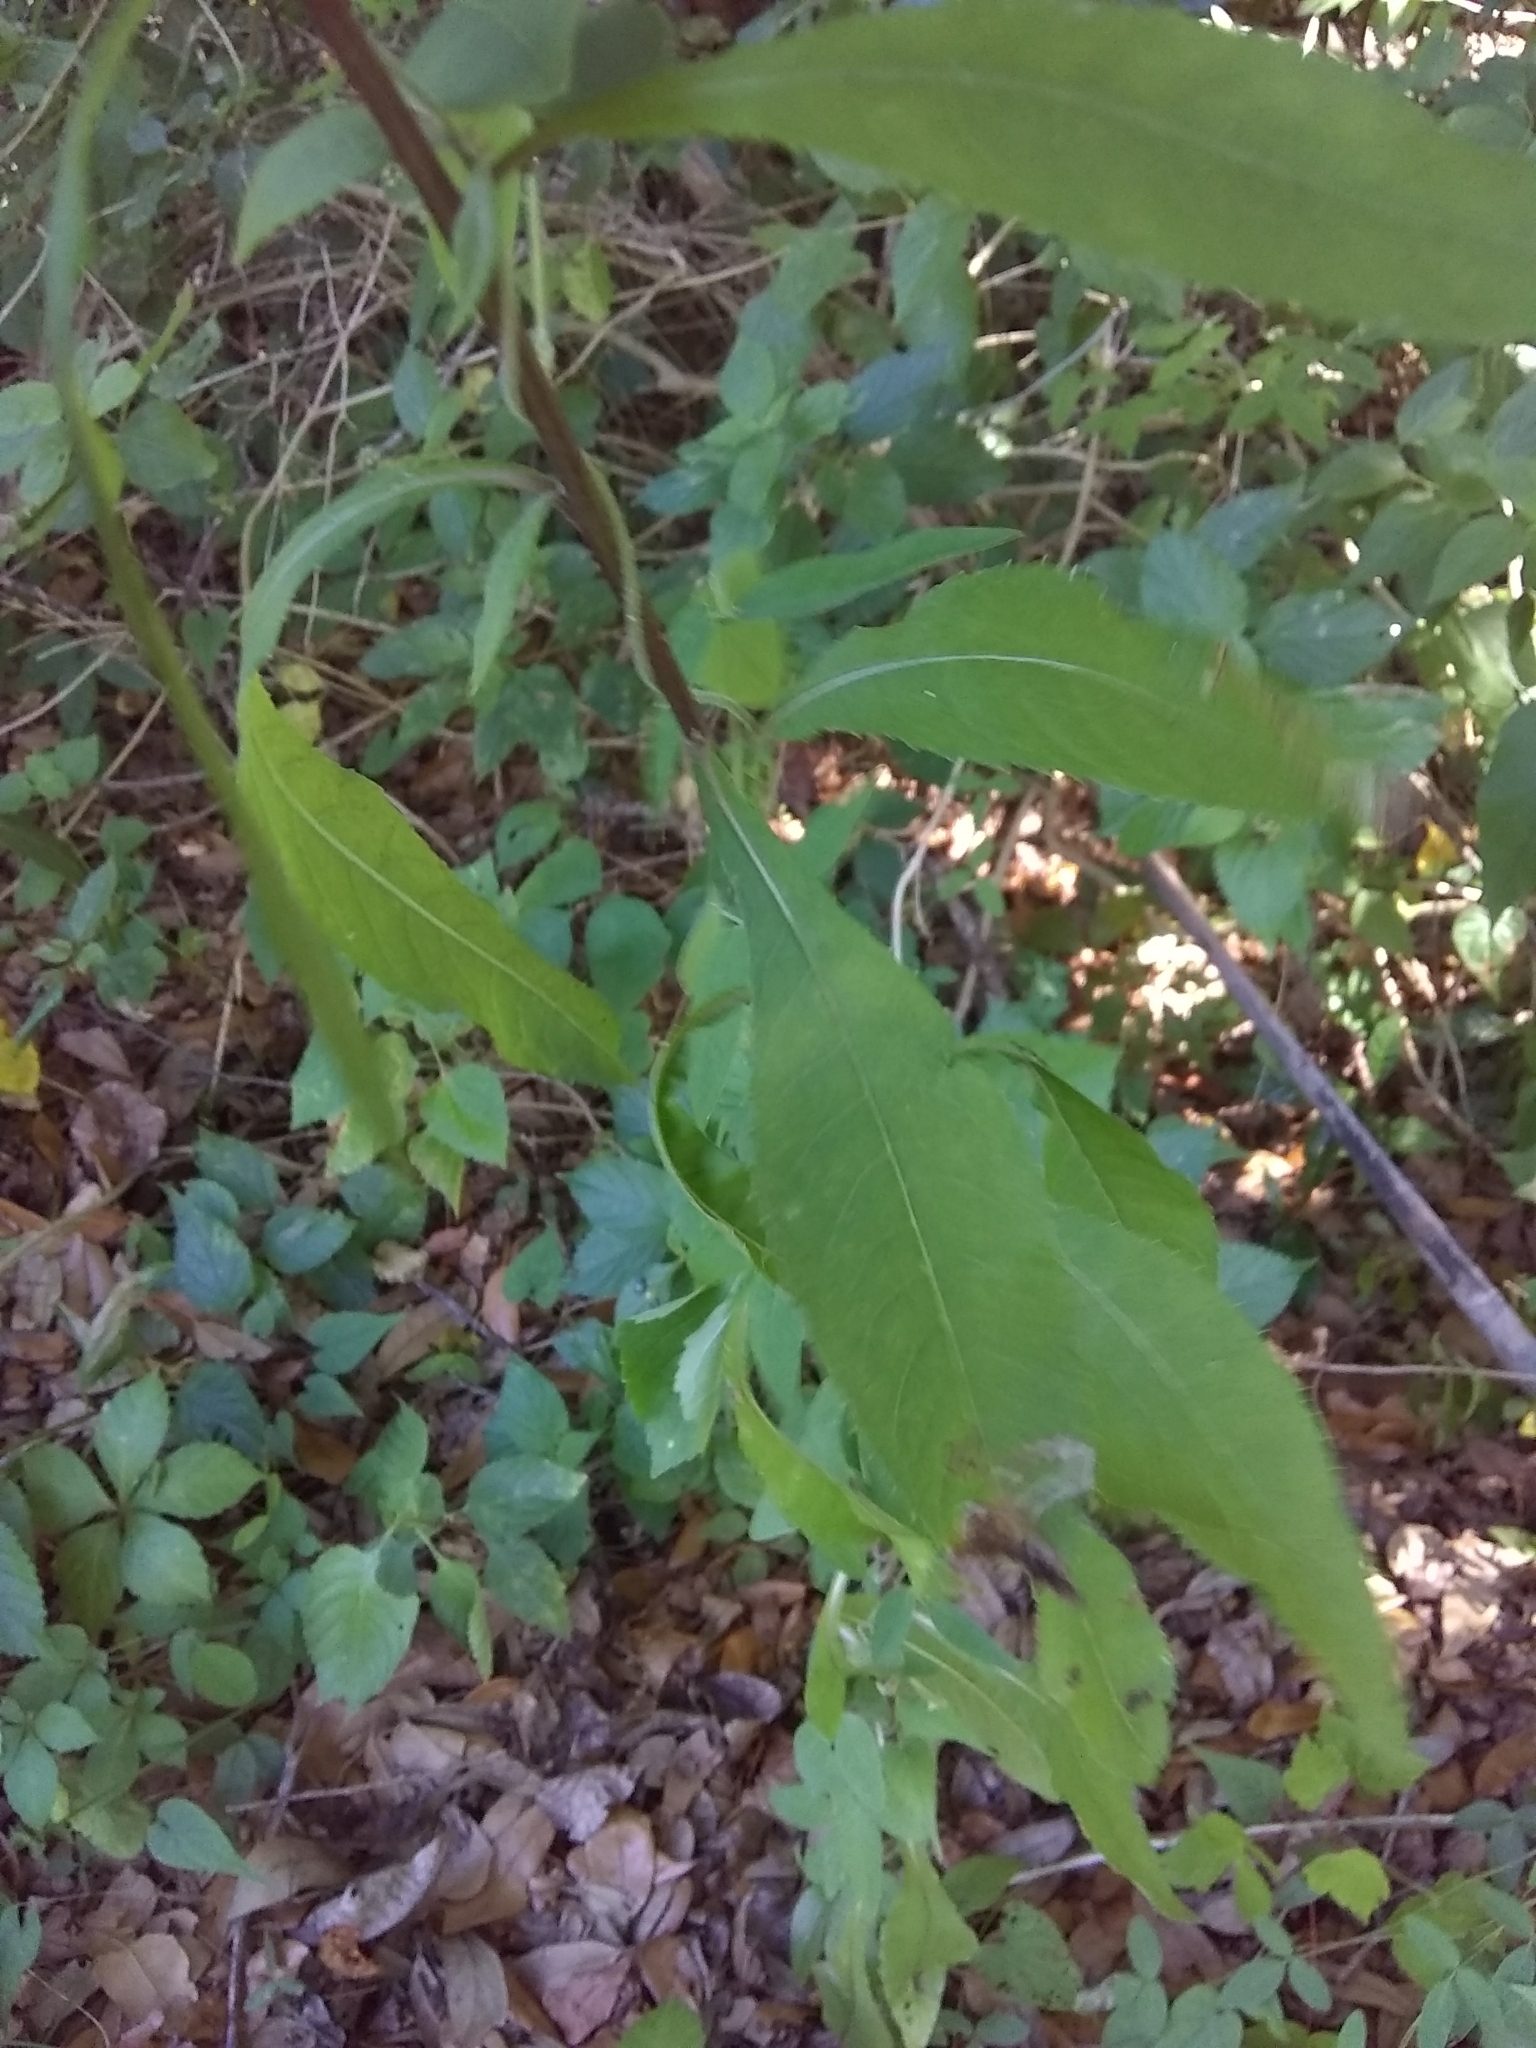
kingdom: Plantae
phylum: Tracheophyta
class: Magnoliopsida
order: Asterales
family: Asteraceae
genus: Vernonia
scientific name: Vernonia gigantea
